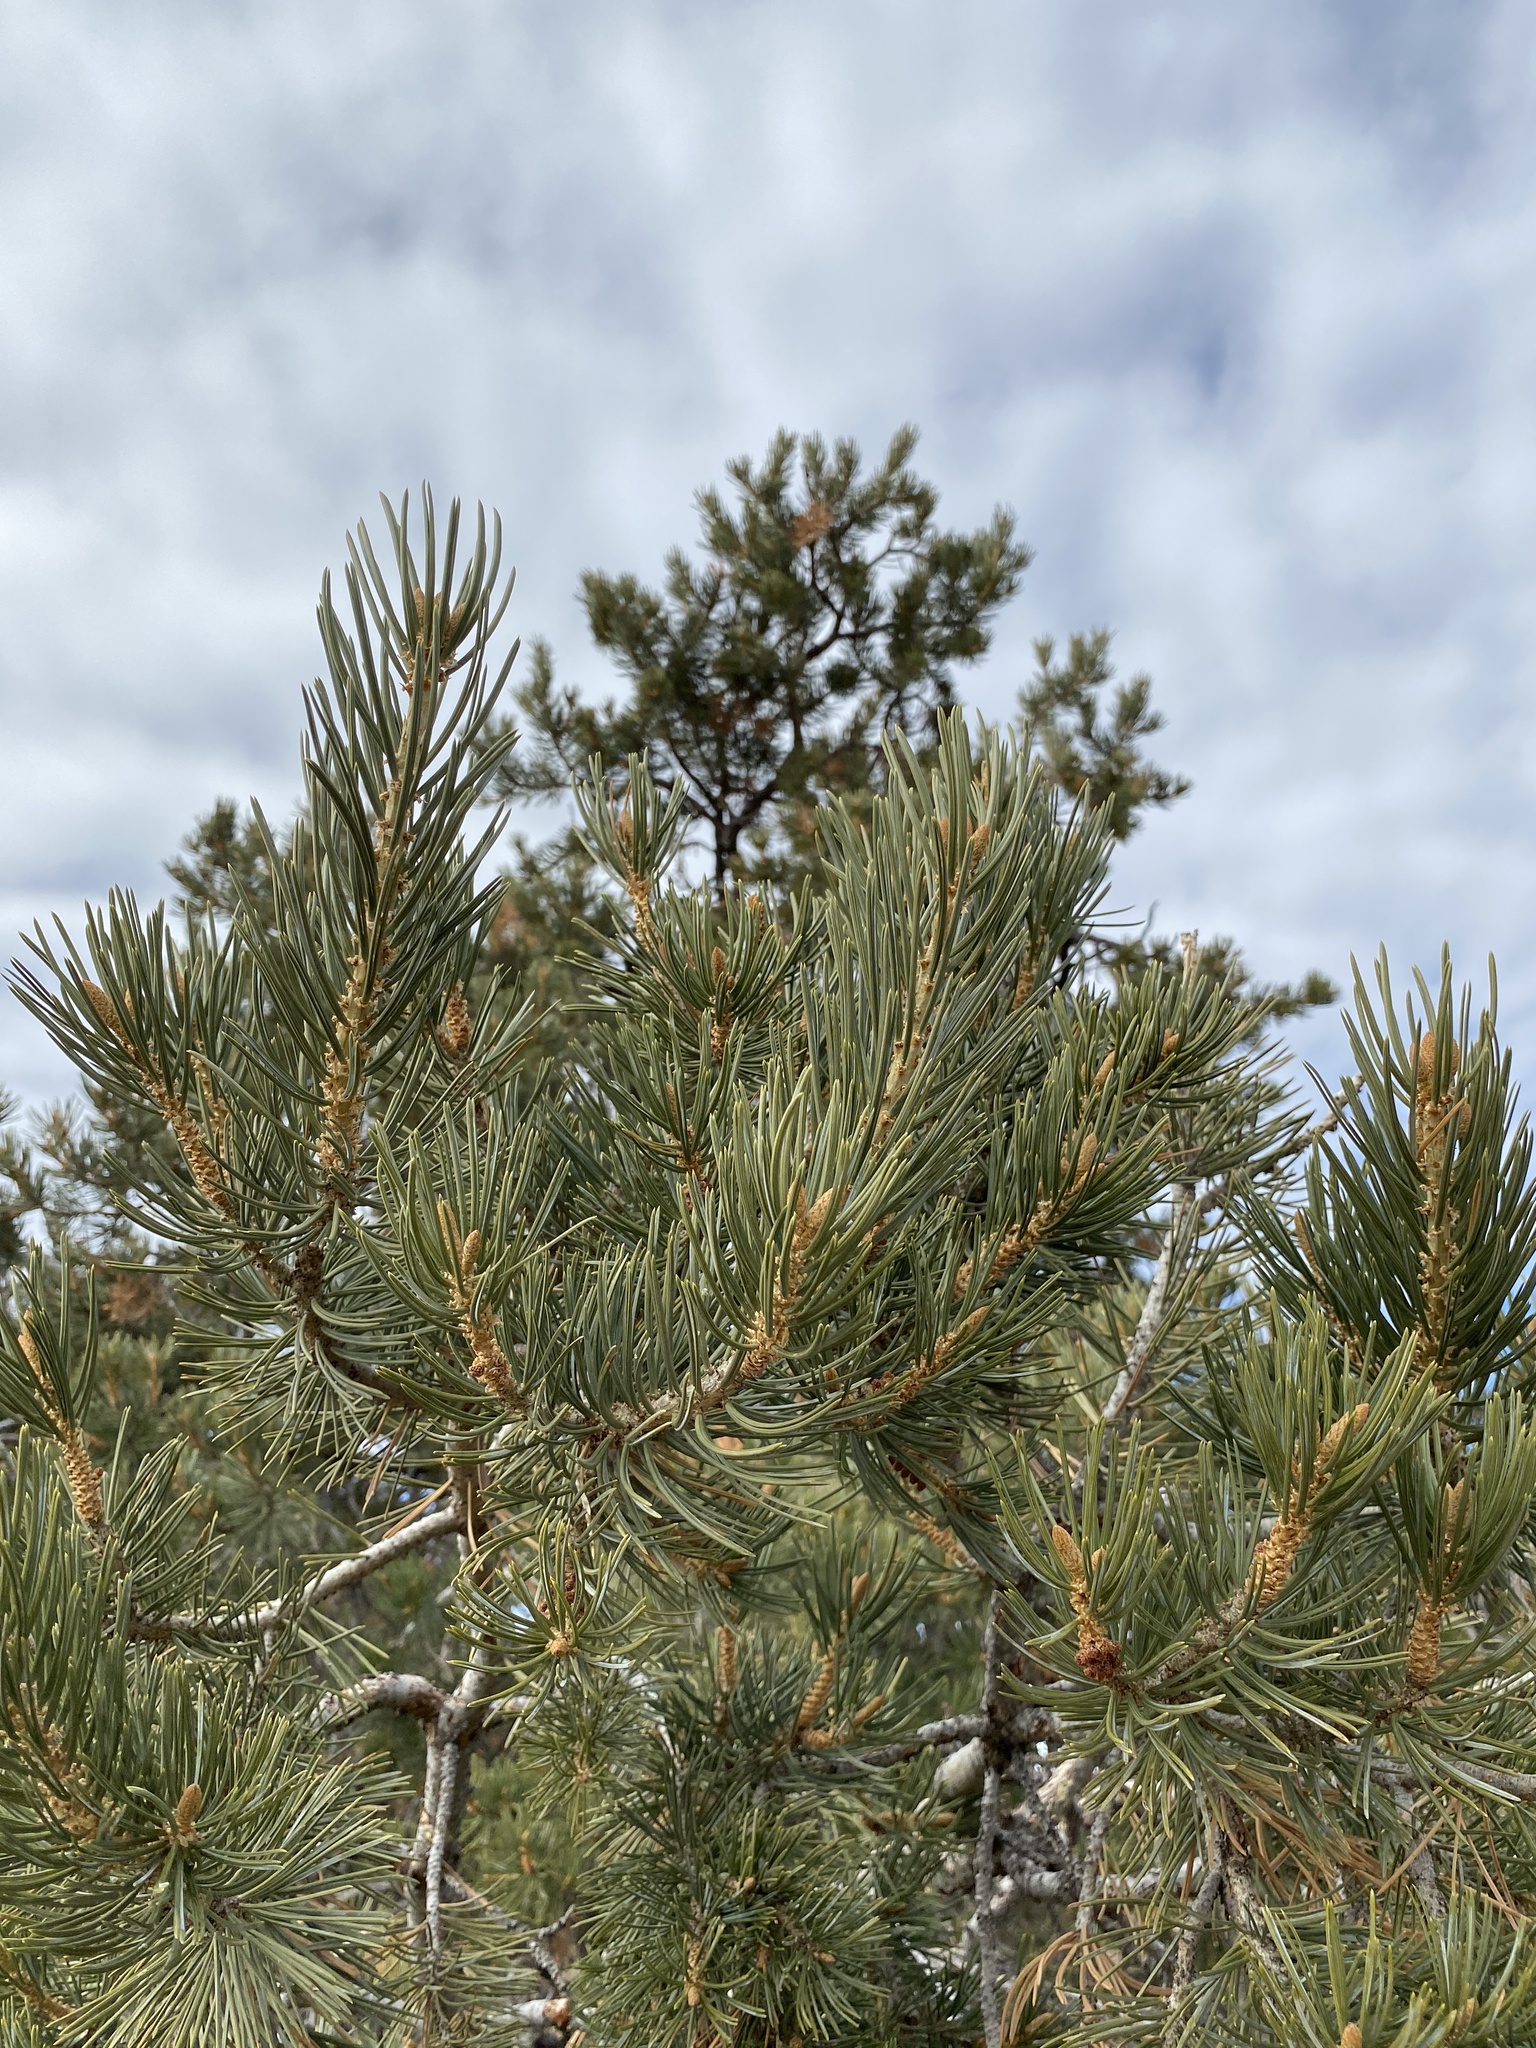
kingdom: Plantae
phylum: Tracheophyta
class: Pinopsida
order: Pinales
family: Pinaceae
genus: Pinus
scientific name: Pinus edulis
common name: Colorado pinyon
